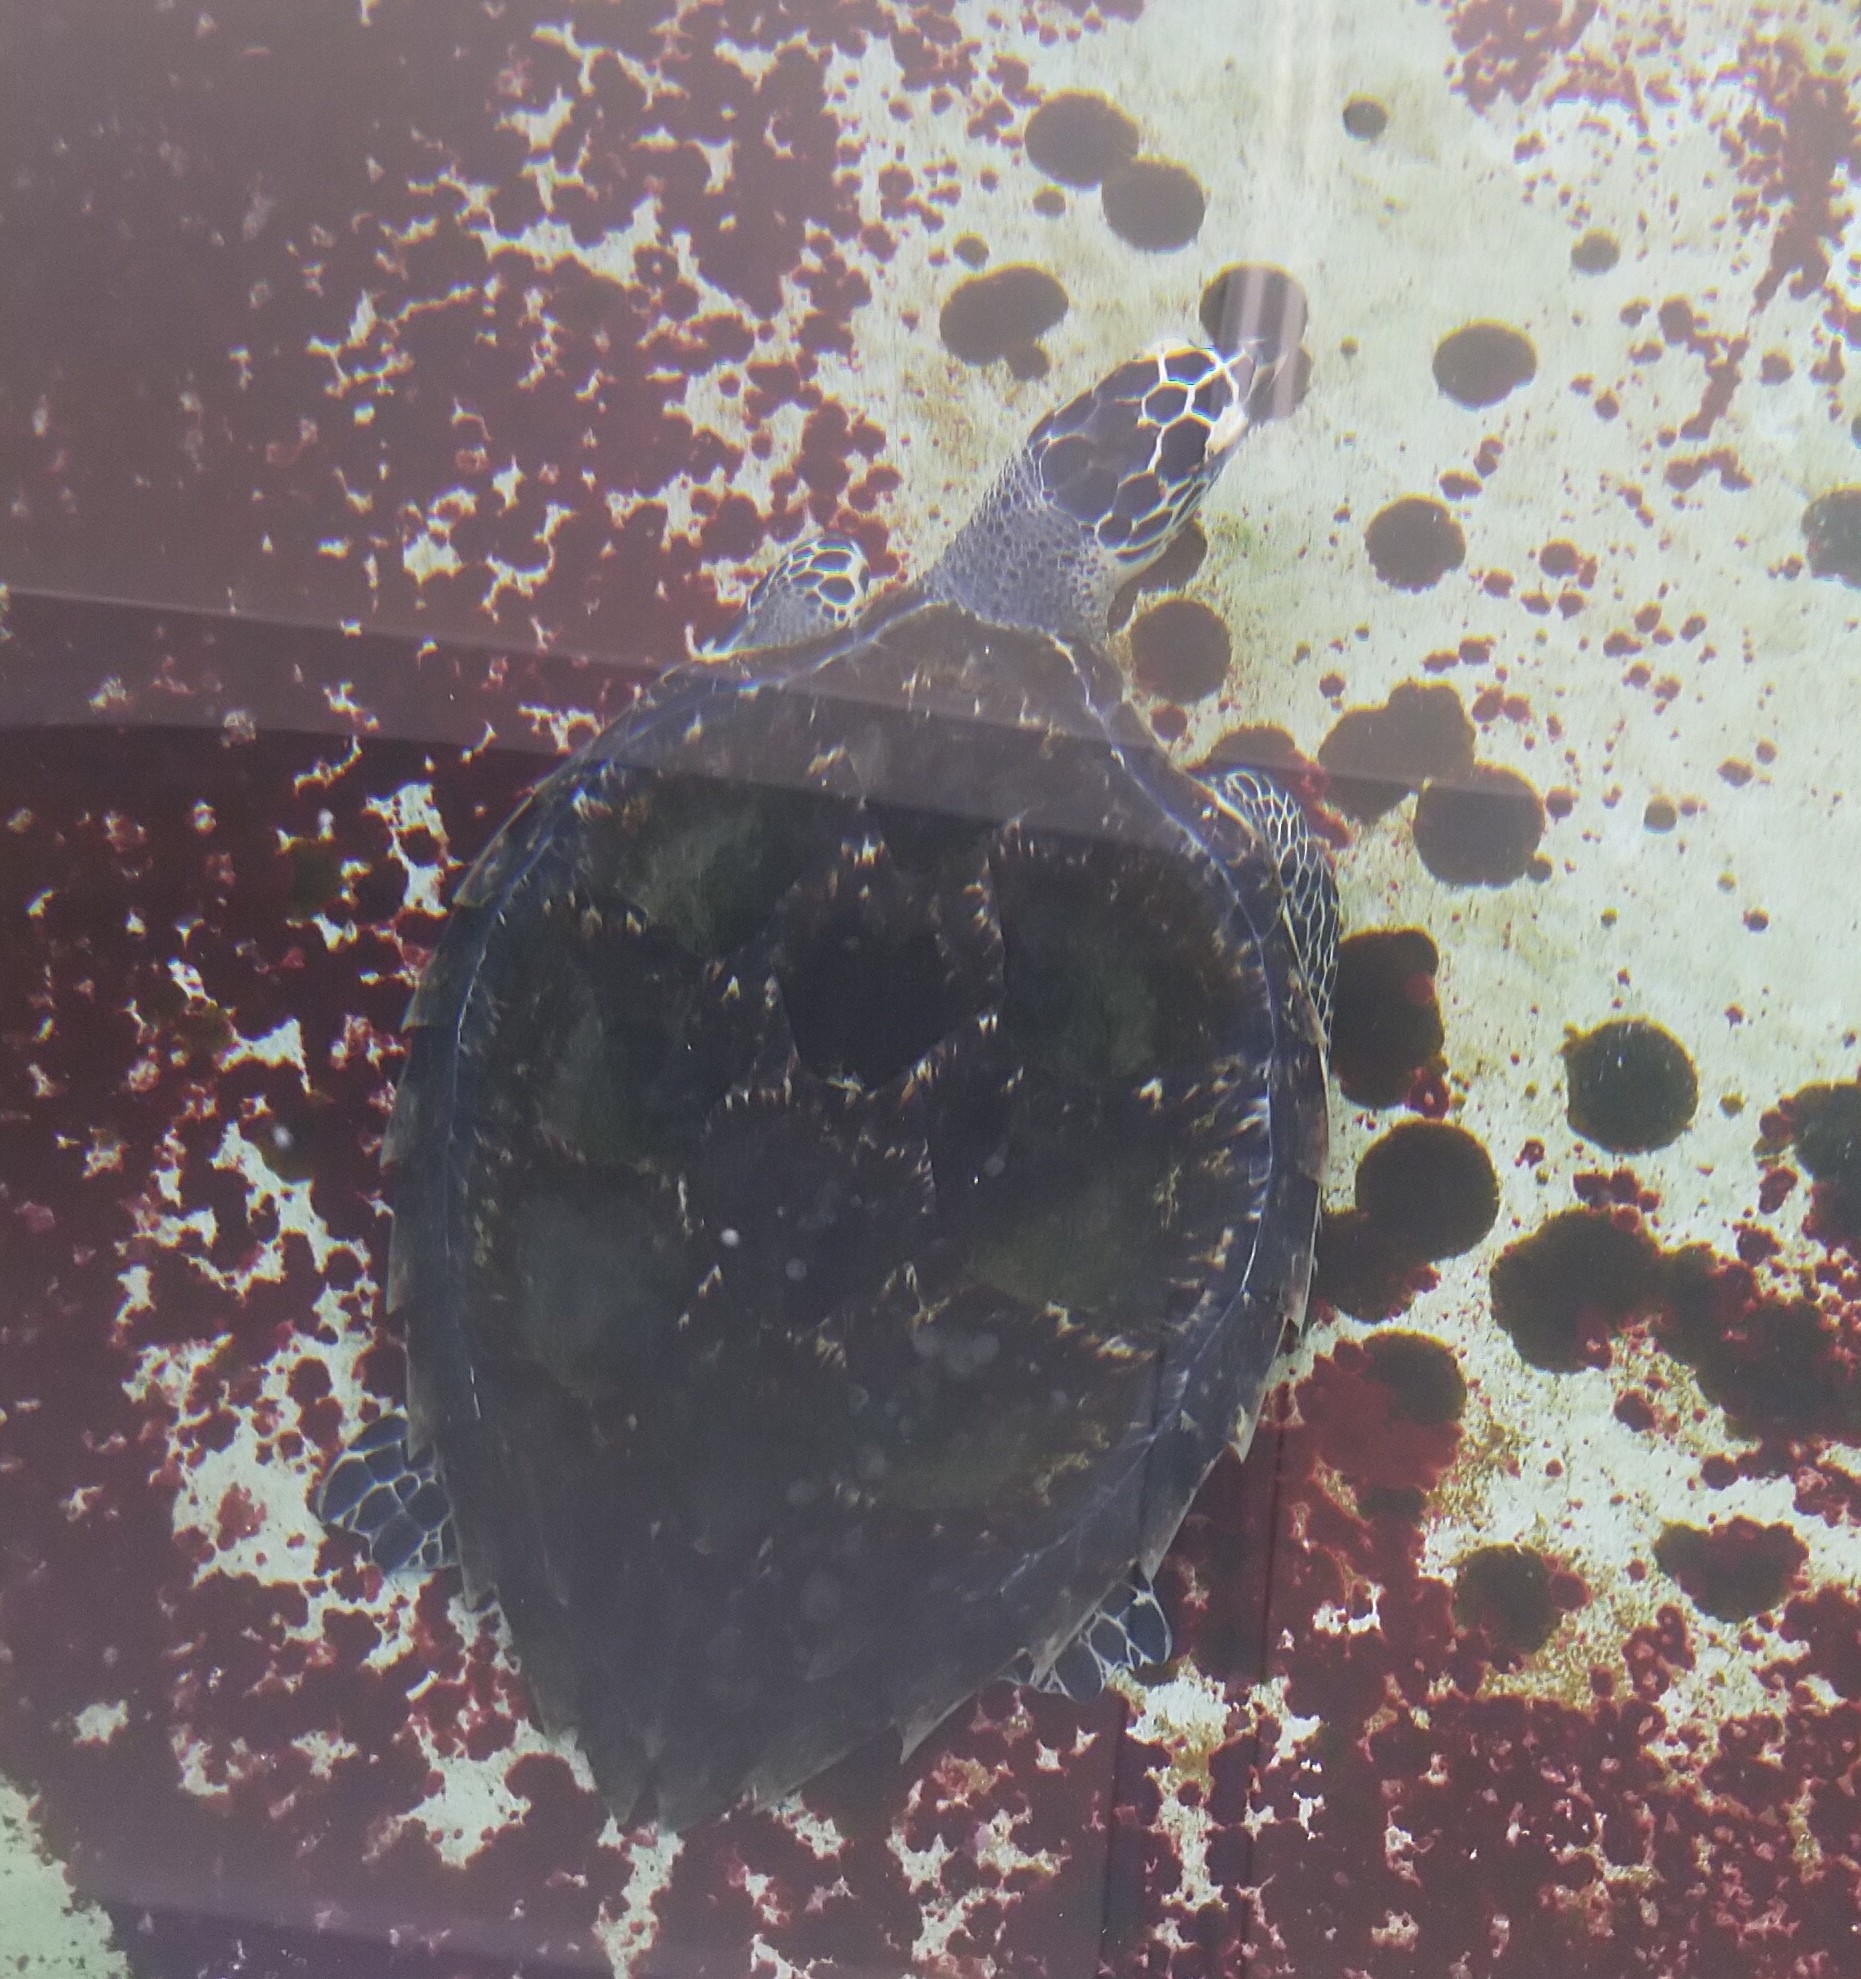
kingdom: Animalia
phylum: Chordata
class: Testudines
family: Cheloniidae
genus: Eretmochelys
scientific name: Eretmochelys imbricata
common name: Hawksbill turtle
